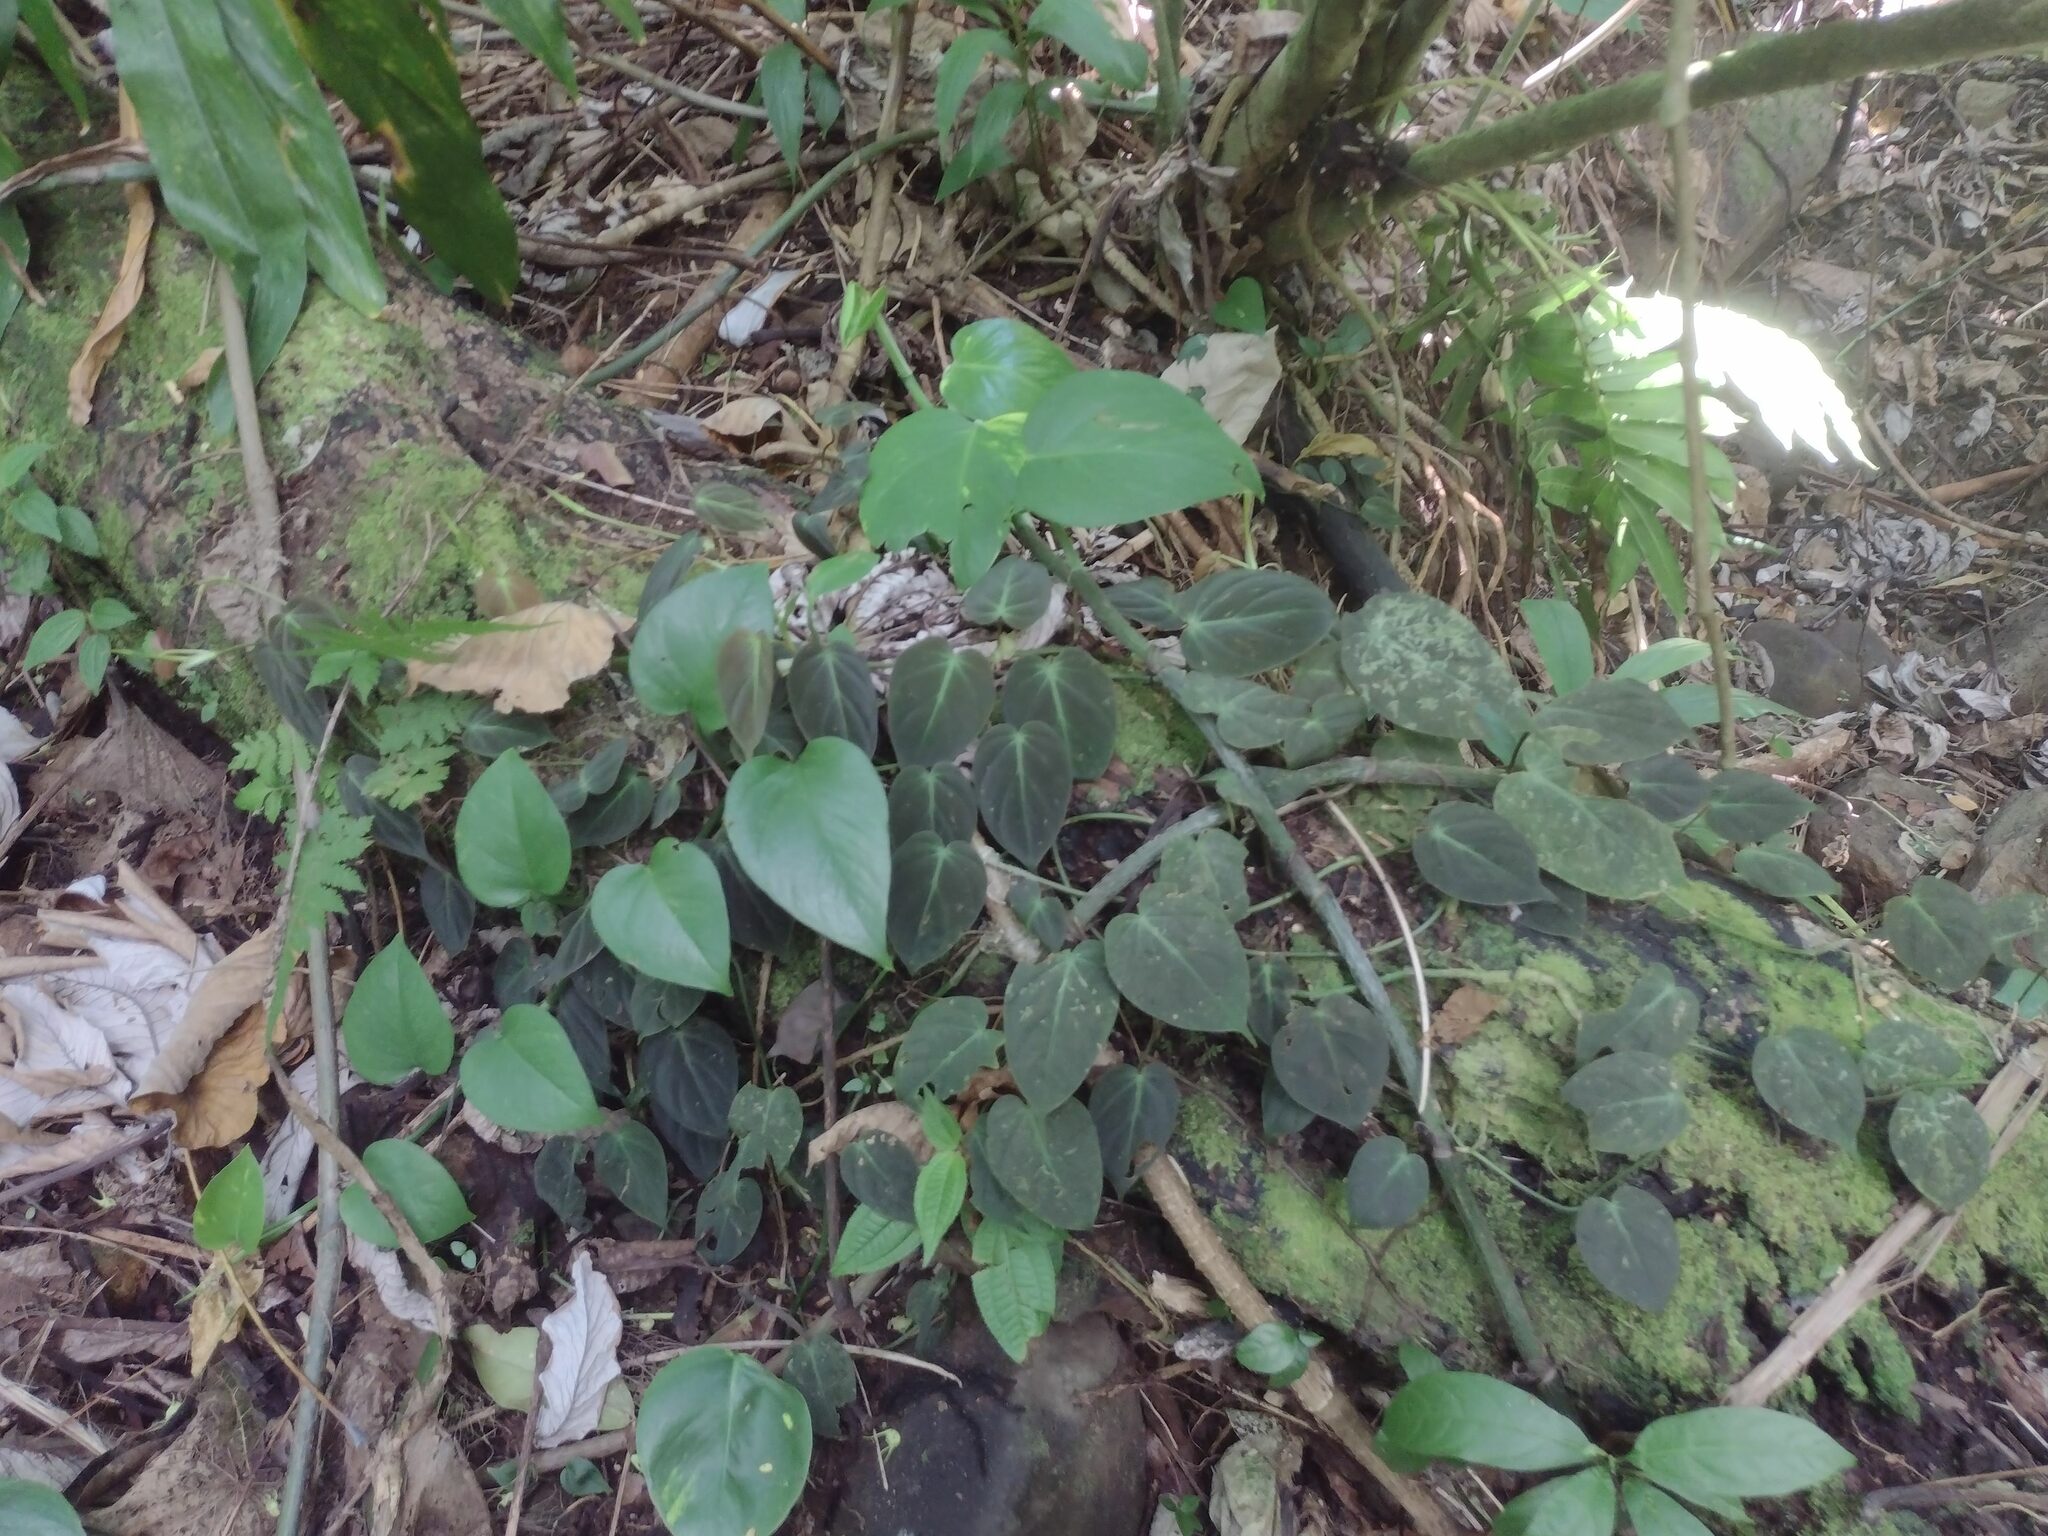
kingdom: Plantae
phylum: Tracheophyta
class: Liliopsida
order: Alismatales
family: Araceae
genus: Philodendron
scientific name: Philodendron hederaceum
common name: Vilevine
